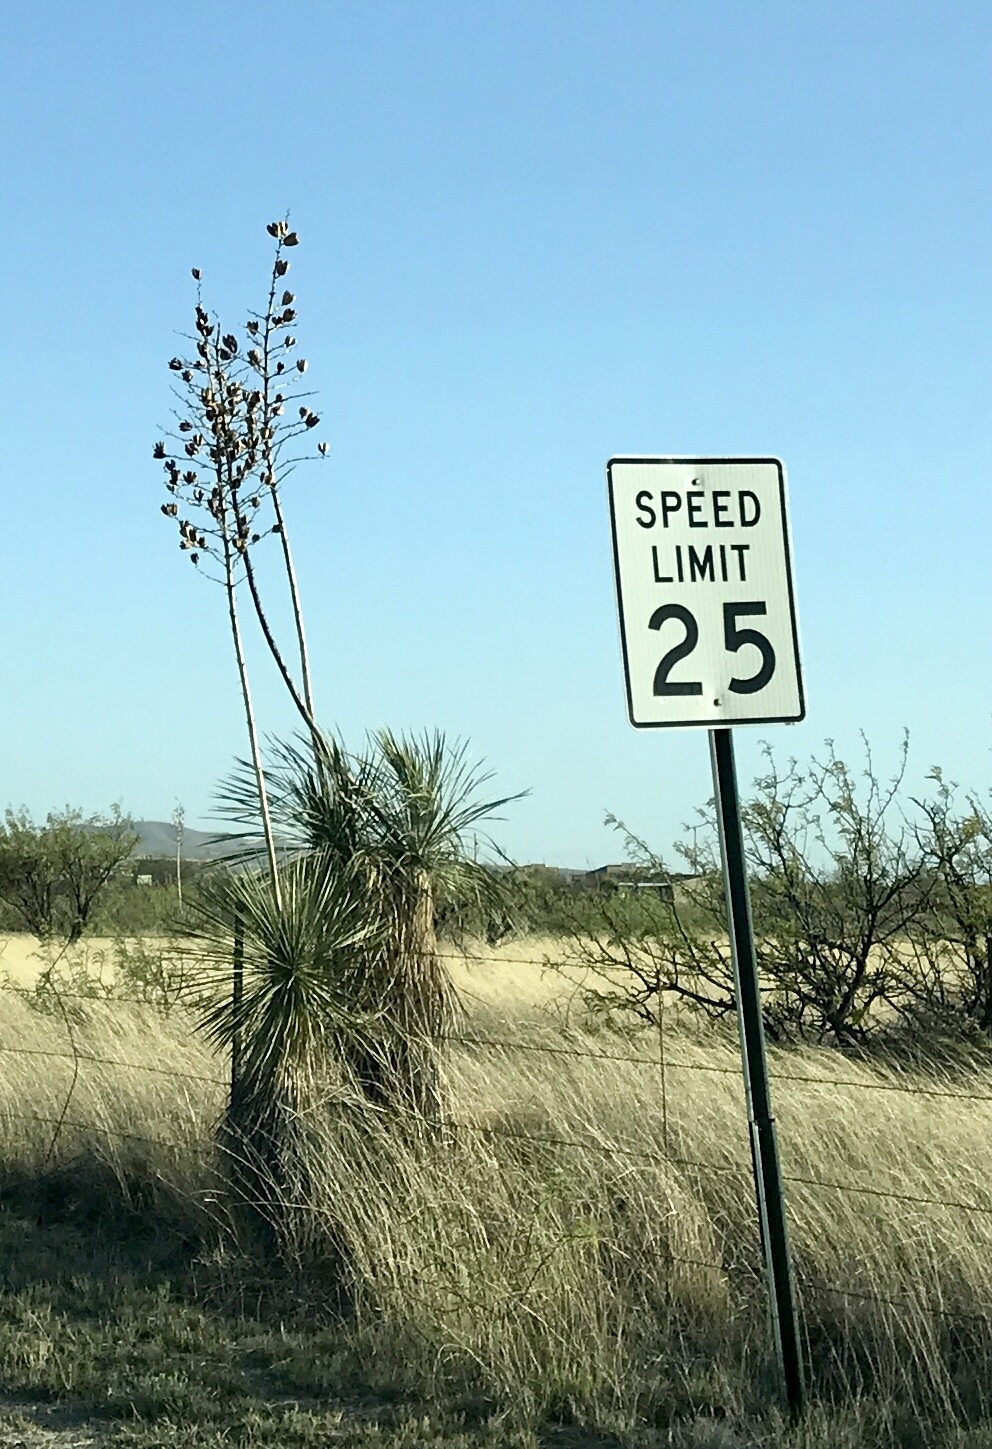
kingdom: Plantae
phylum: Tracheophyta
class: Liliopsida
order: Asparagales
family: Asparagaceae
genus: Yucca
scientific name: Yucca elata
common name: Palmella
